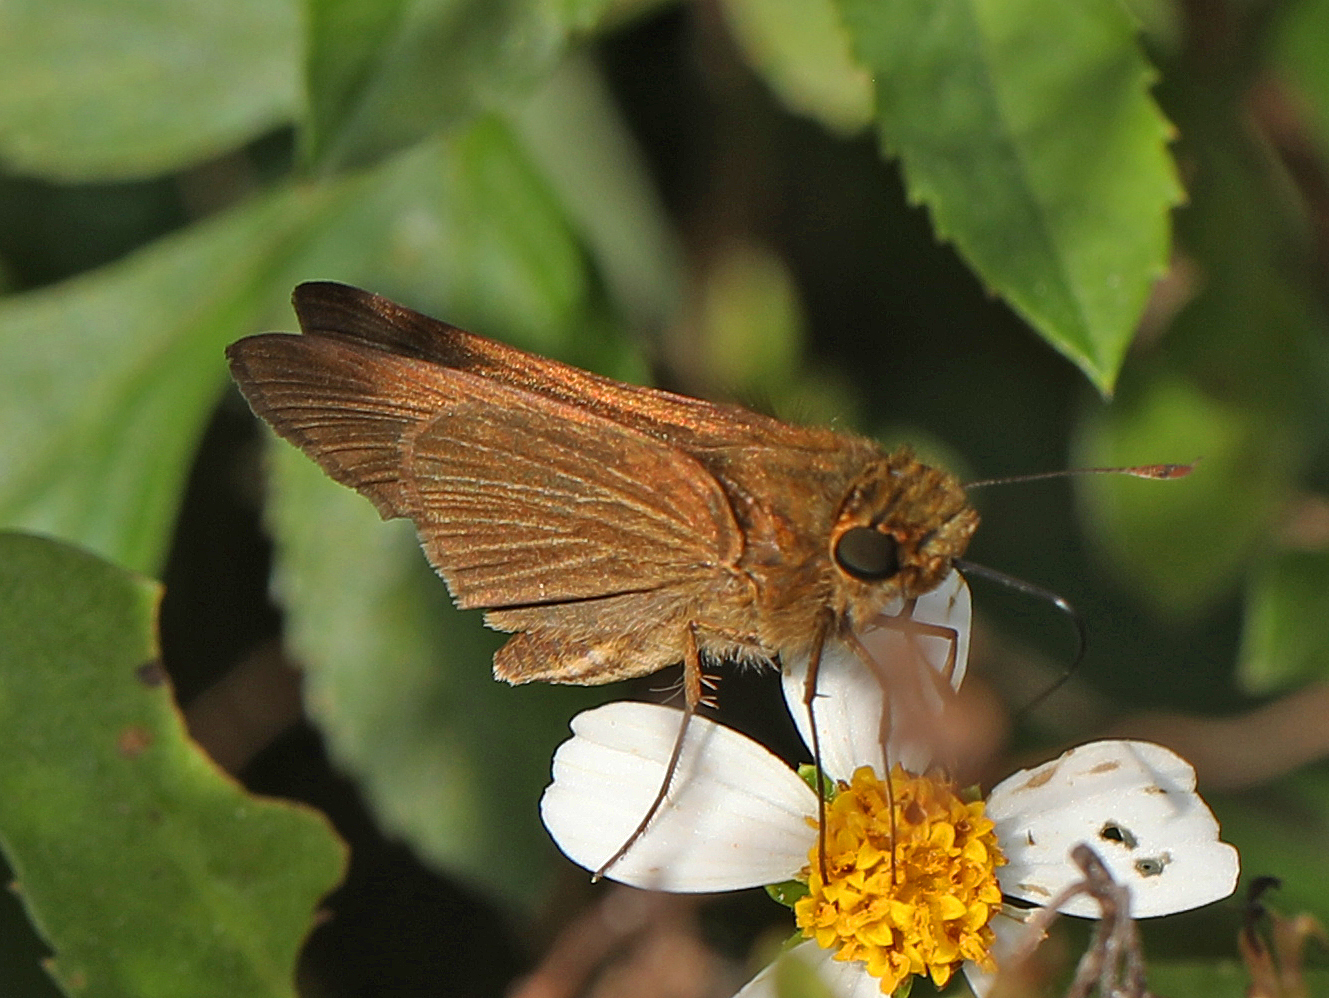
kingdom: Animalia
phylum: Arthropoda
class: Insecta
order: Lepidoptera
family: Hesperiidae
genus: Panoquina
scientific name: Panoquina ocola
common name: Ocola skipper
